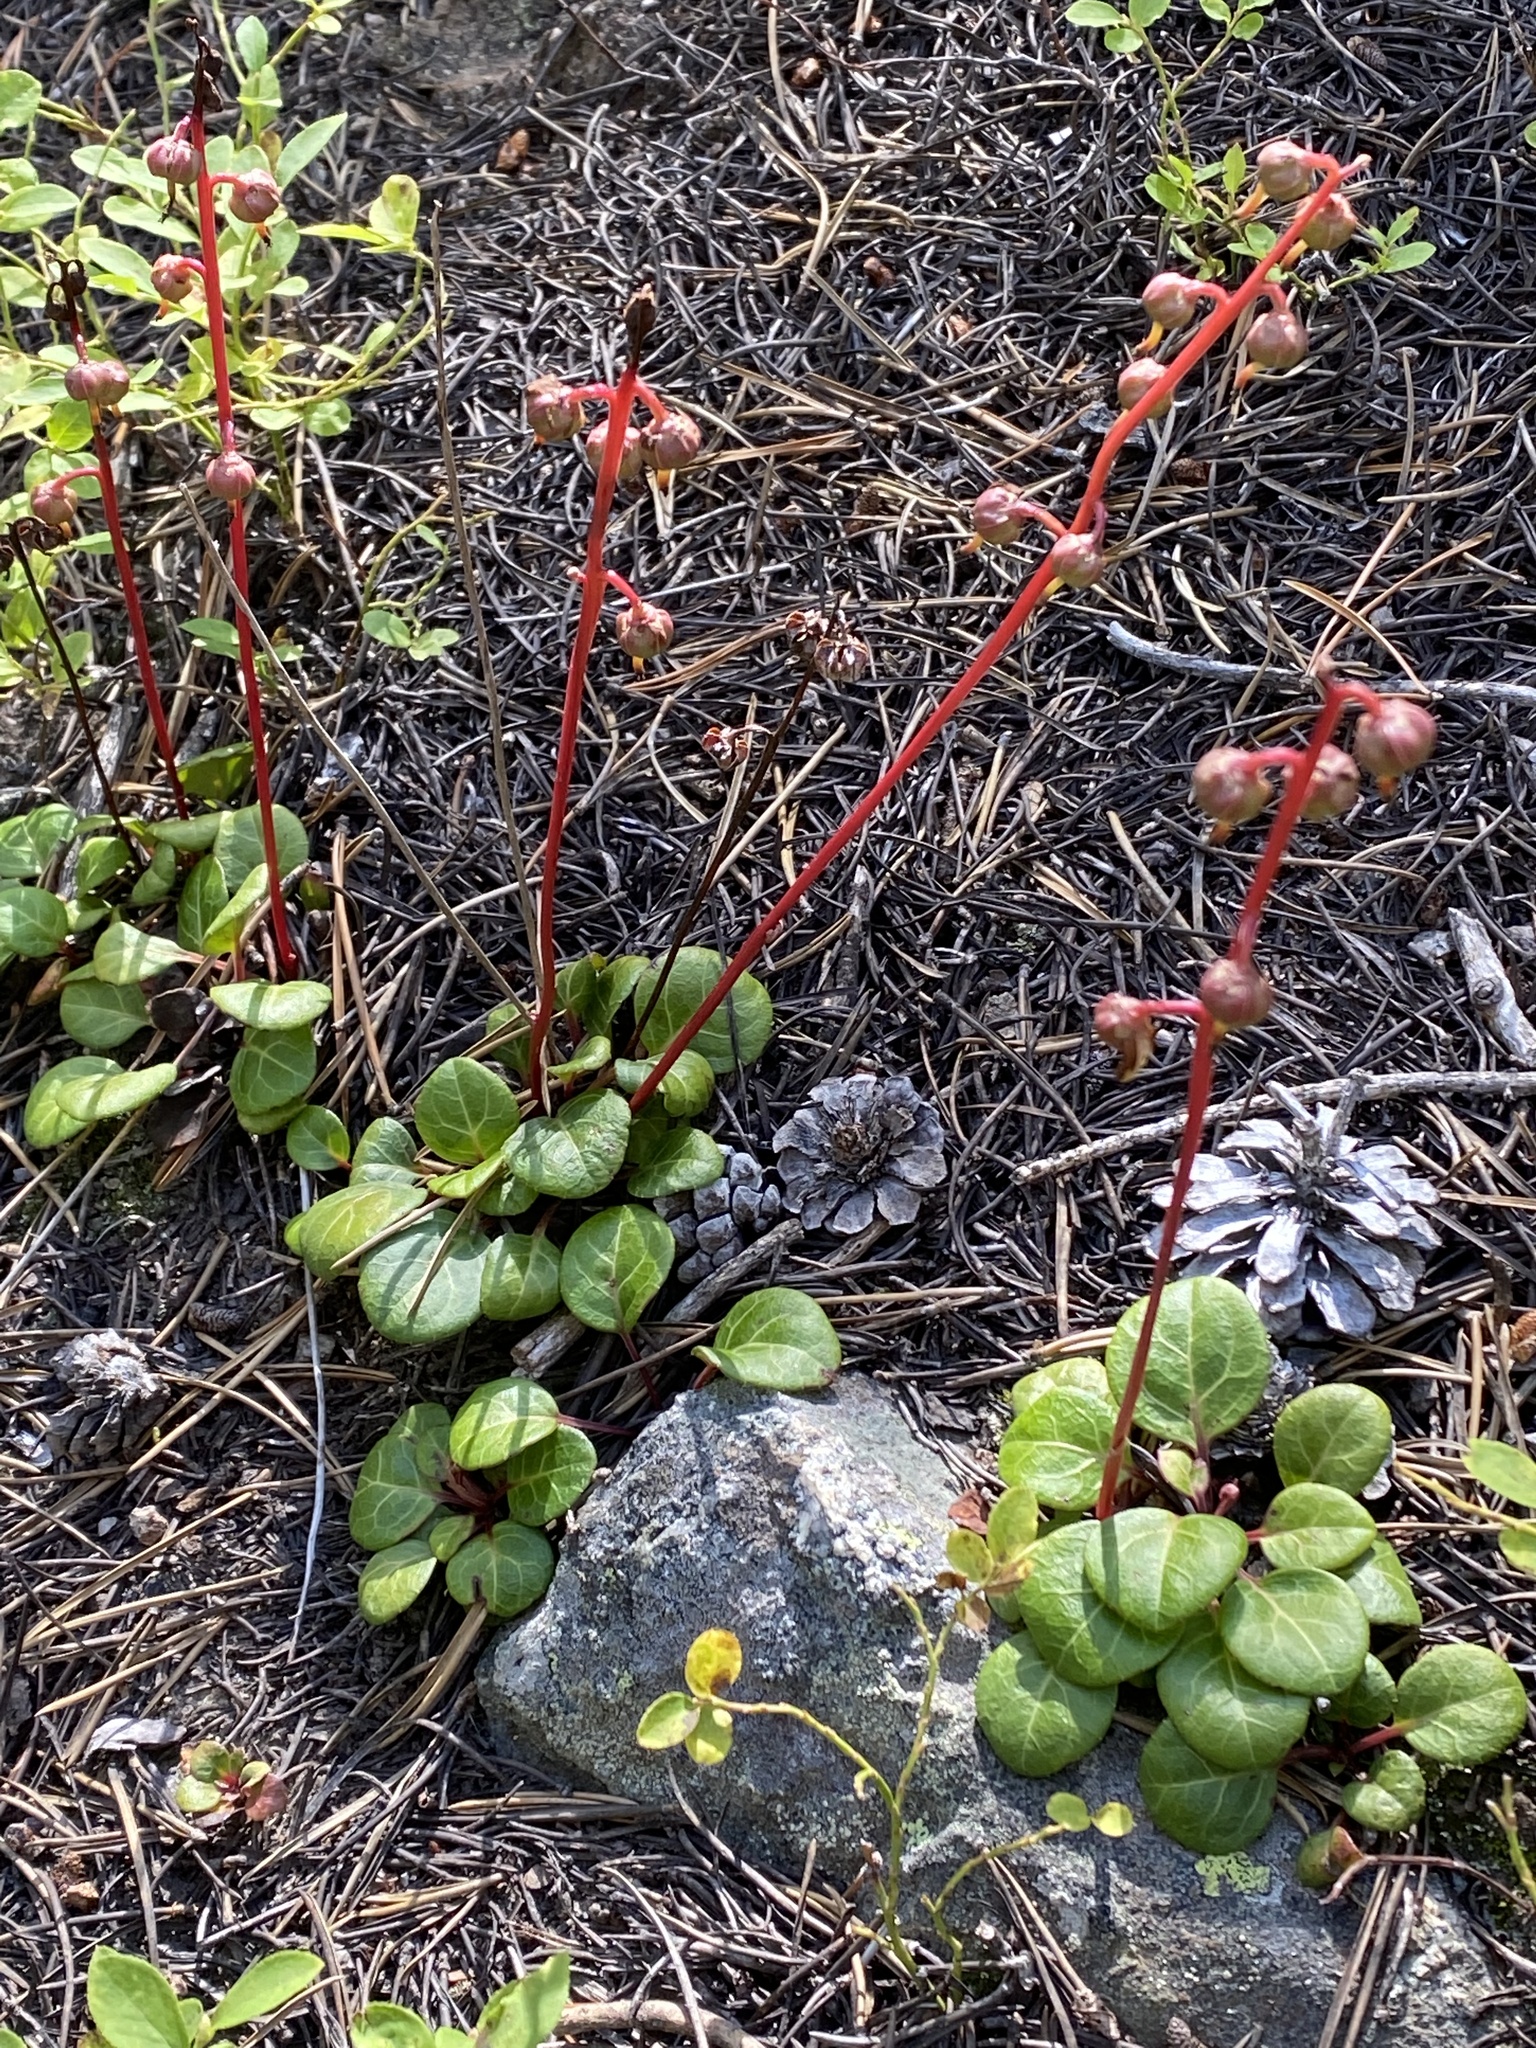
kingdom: Plantae
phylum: Tracheophyta
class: Magnoliopsida
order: Ericales
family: Ericaceae
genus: Pyrola
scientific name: Pyrola chlorantha
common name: Green wintergreen
